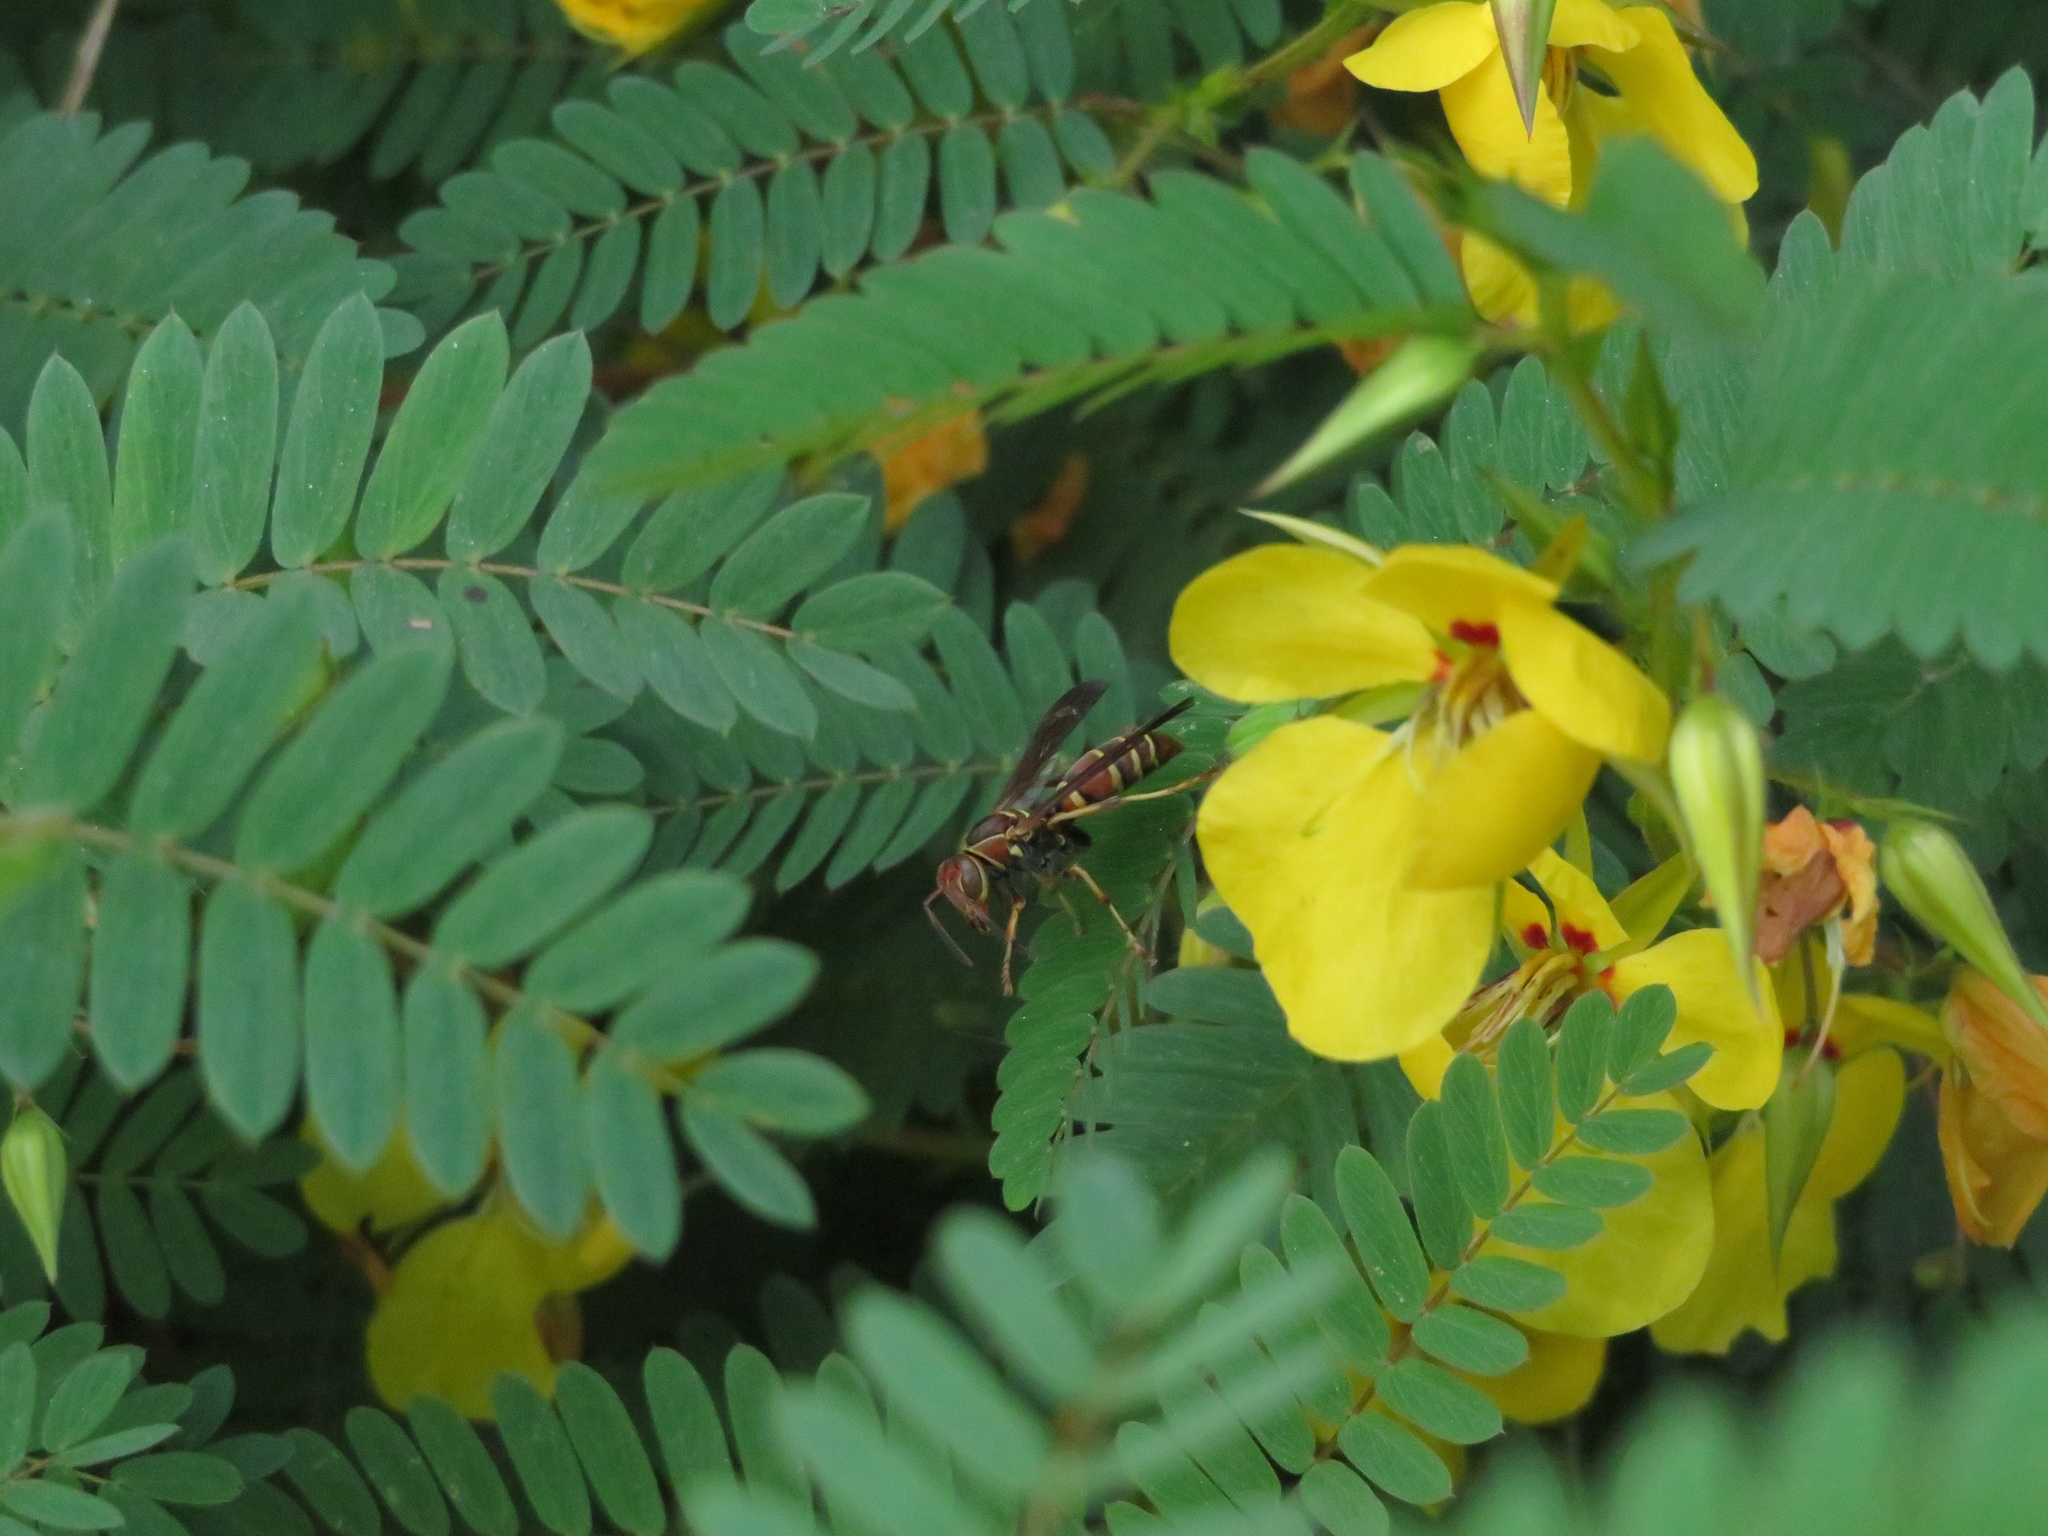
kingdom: Animalia
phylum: Arthropoda
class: Insecta
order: Hymenoptera
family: Eumenidae
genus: Polistes
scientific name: Polistes dorsalis
